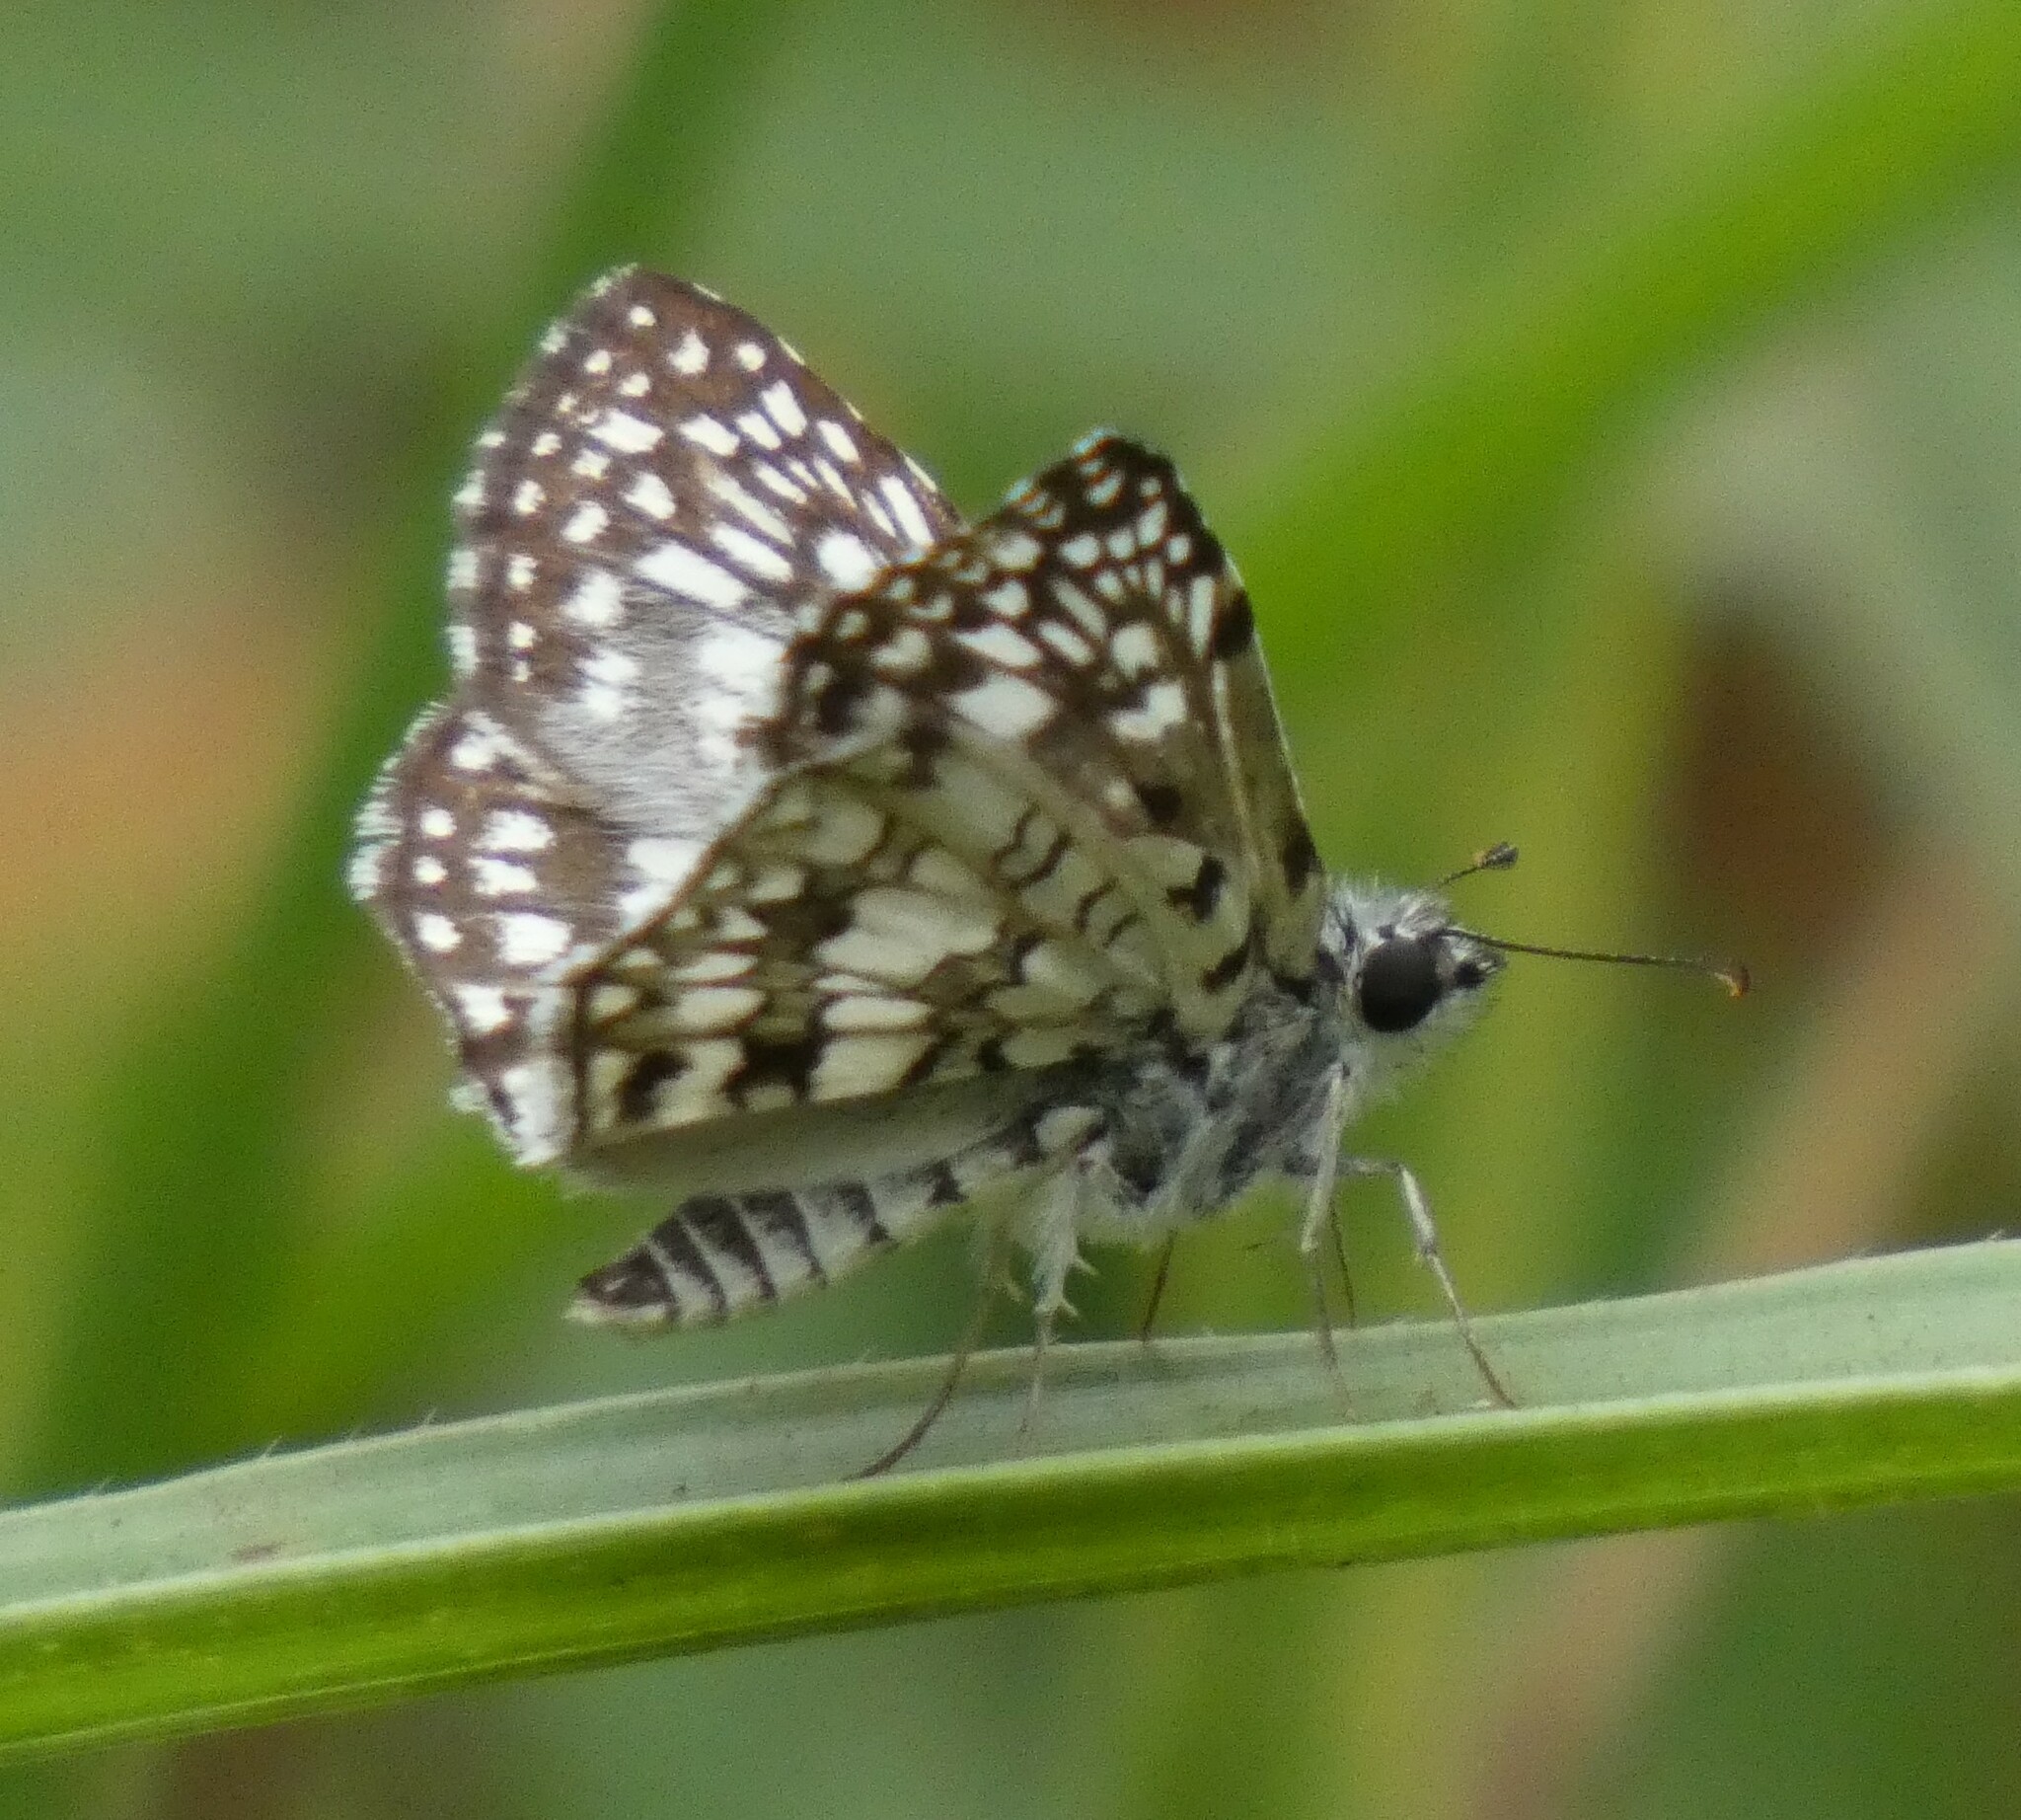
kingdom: Animalia
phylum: Arthropoda
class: Insecta
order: Lepidoptera
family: Hesperiidae
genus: Pyrgus
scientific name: Pyrgus oileus
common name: Tropical checkered-skipper
